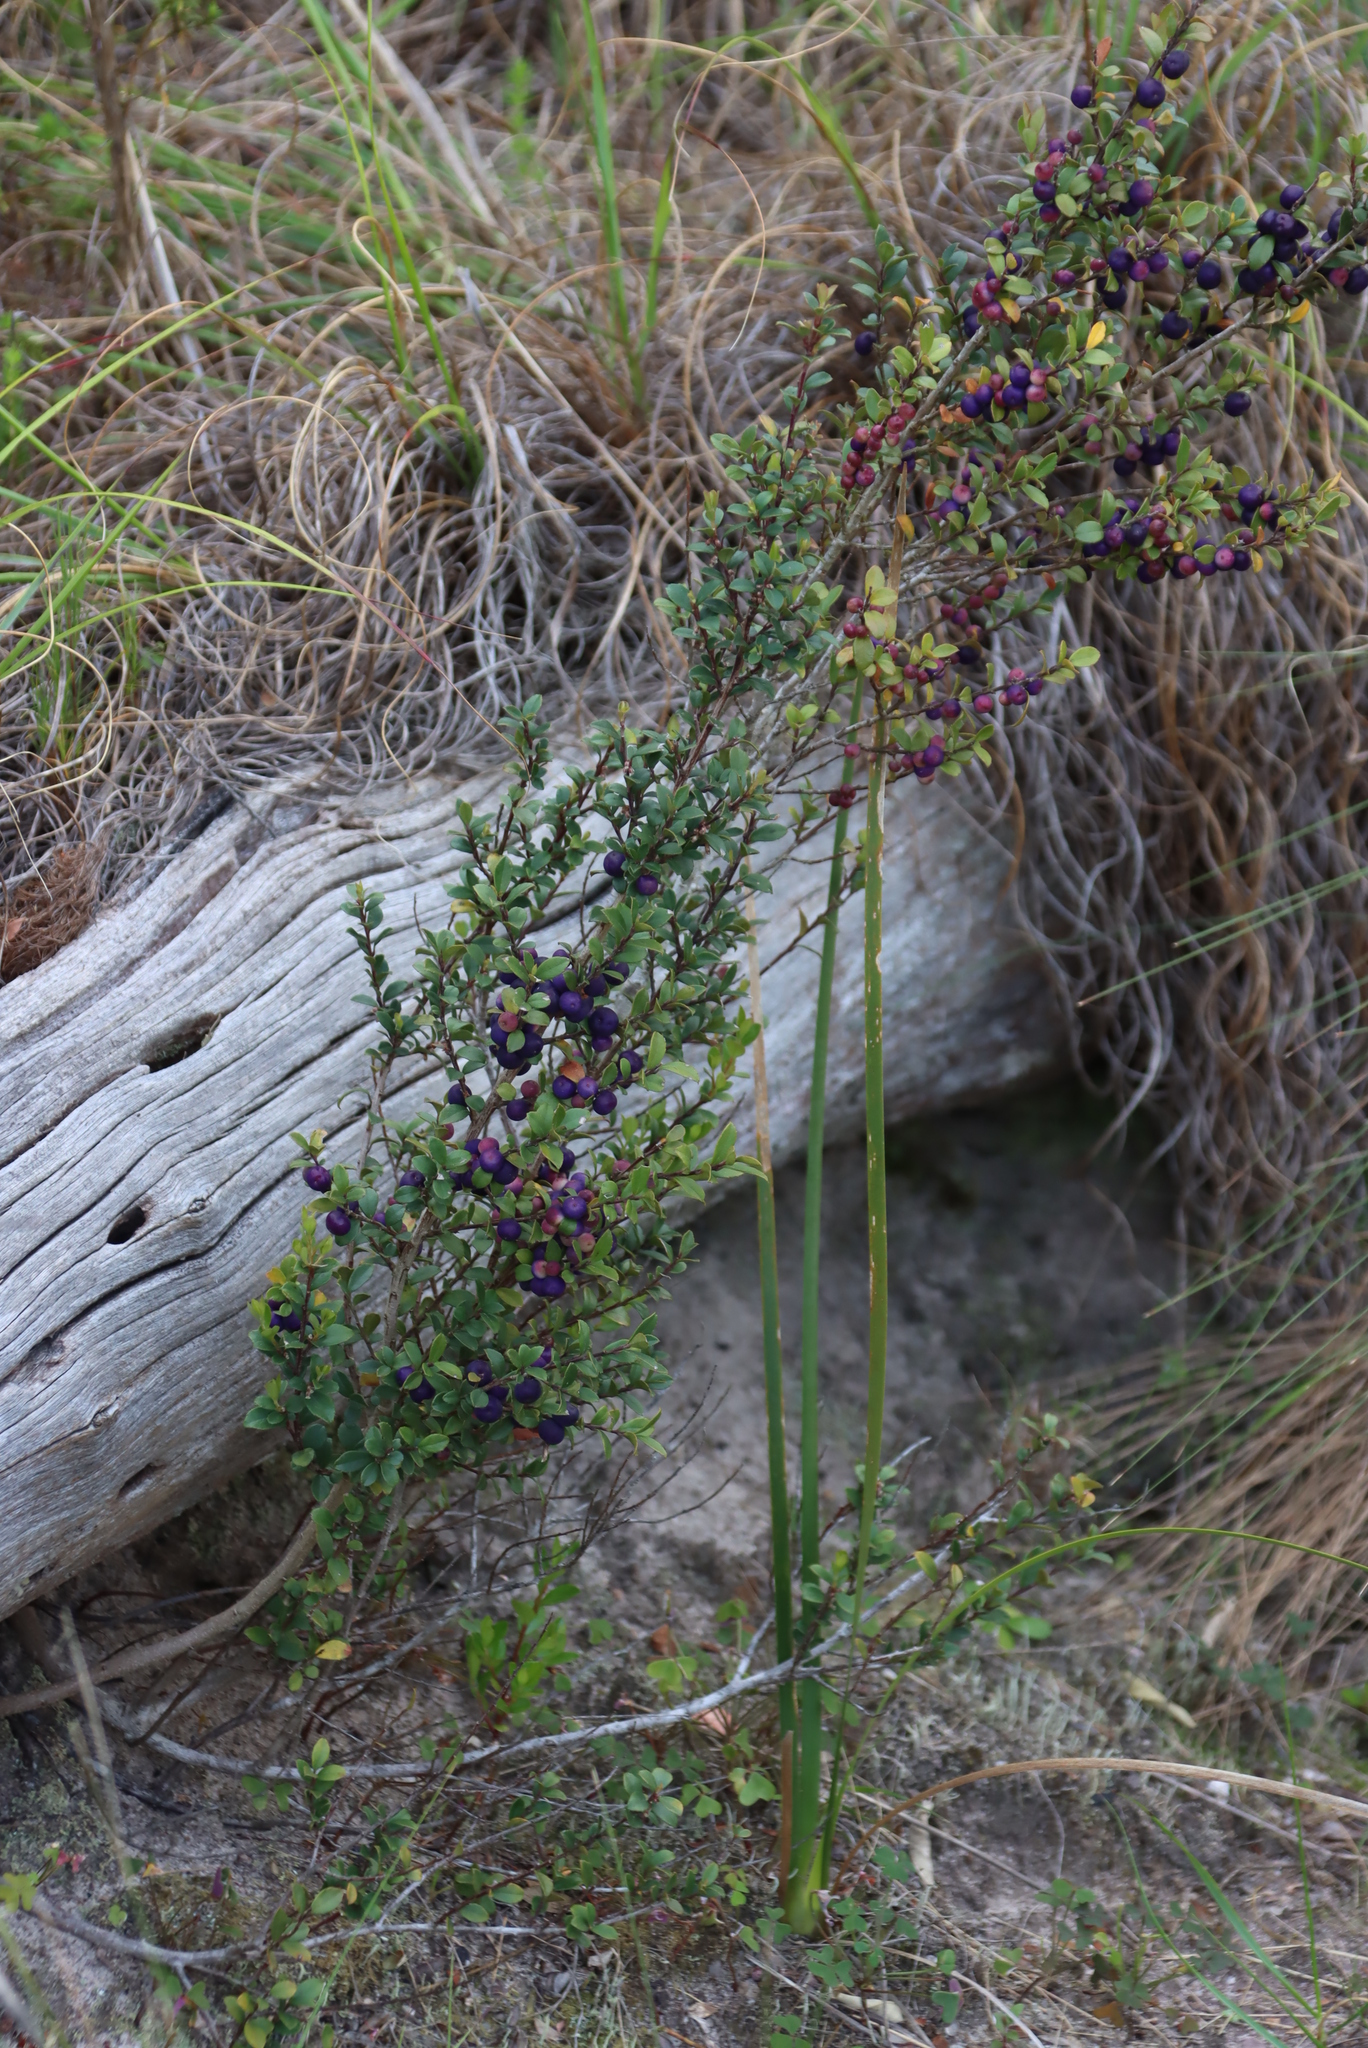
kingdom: Plantae
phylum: Tracheophyta
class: Magnoliopsida
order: Ericales
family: Primulaceae
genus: Myrsine
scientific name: Myrsine africana
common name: African-boxwood
